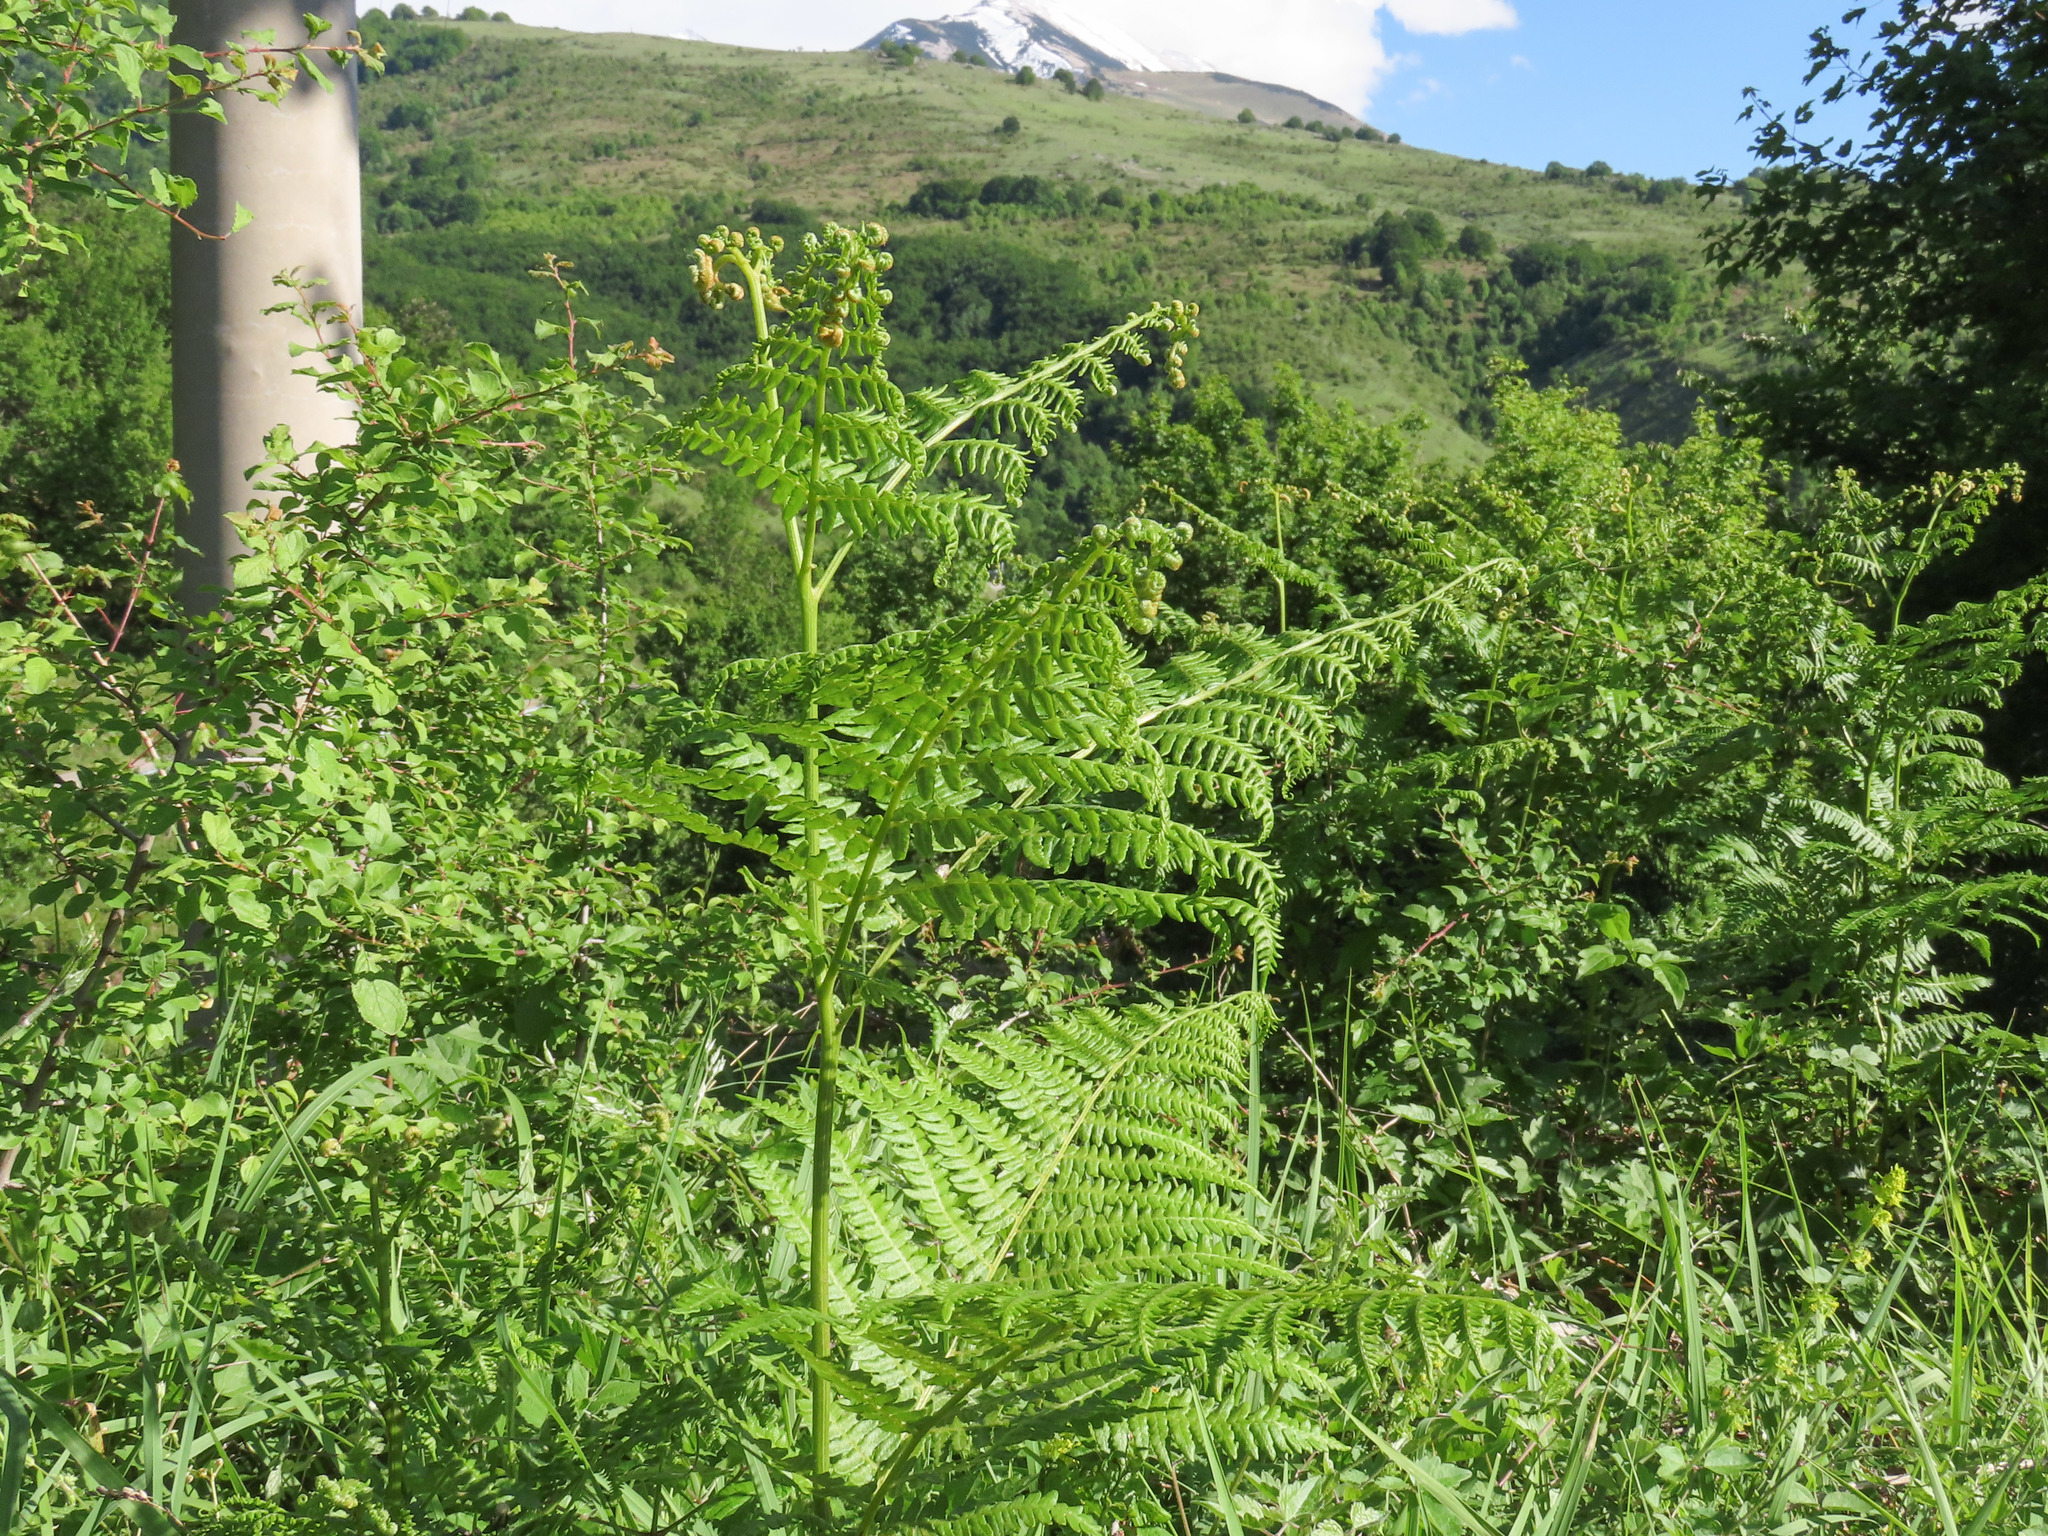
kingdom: Plantae
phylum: Tracheophyta
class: Polypodiopsida
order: Polypodiales
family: Dennstaedtiaceae
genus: Pteridium
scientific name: Pteridium aquilinum
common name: Bracken
